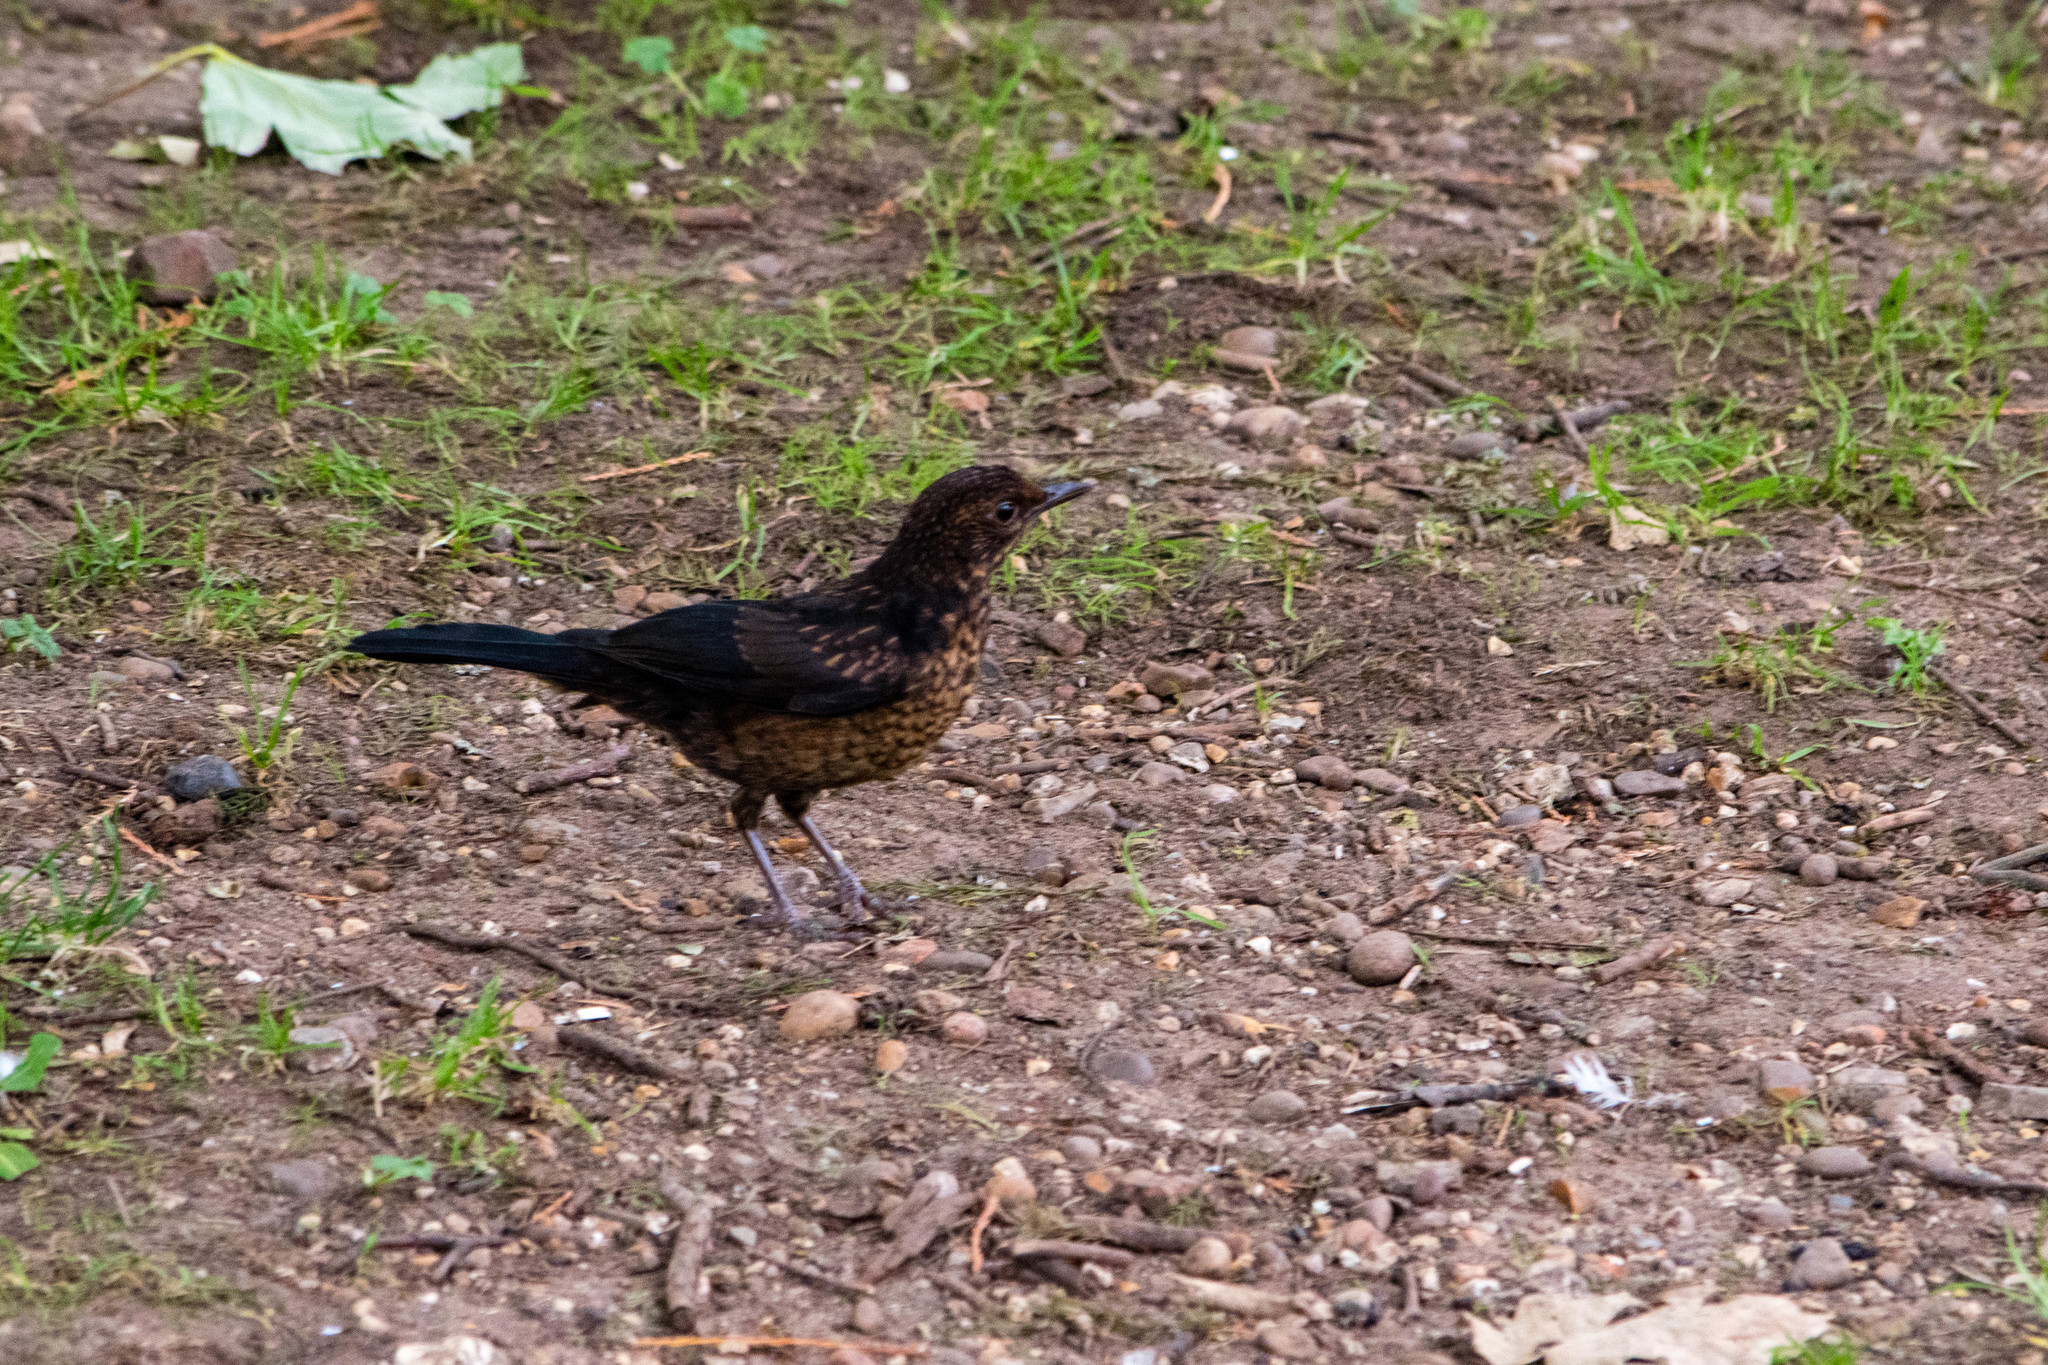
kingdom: Animalia
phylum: Chordata
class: Aves
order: Passeriformes
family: Turdidae
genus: Turdus
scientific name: Turdus merula
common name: Common blackbird
